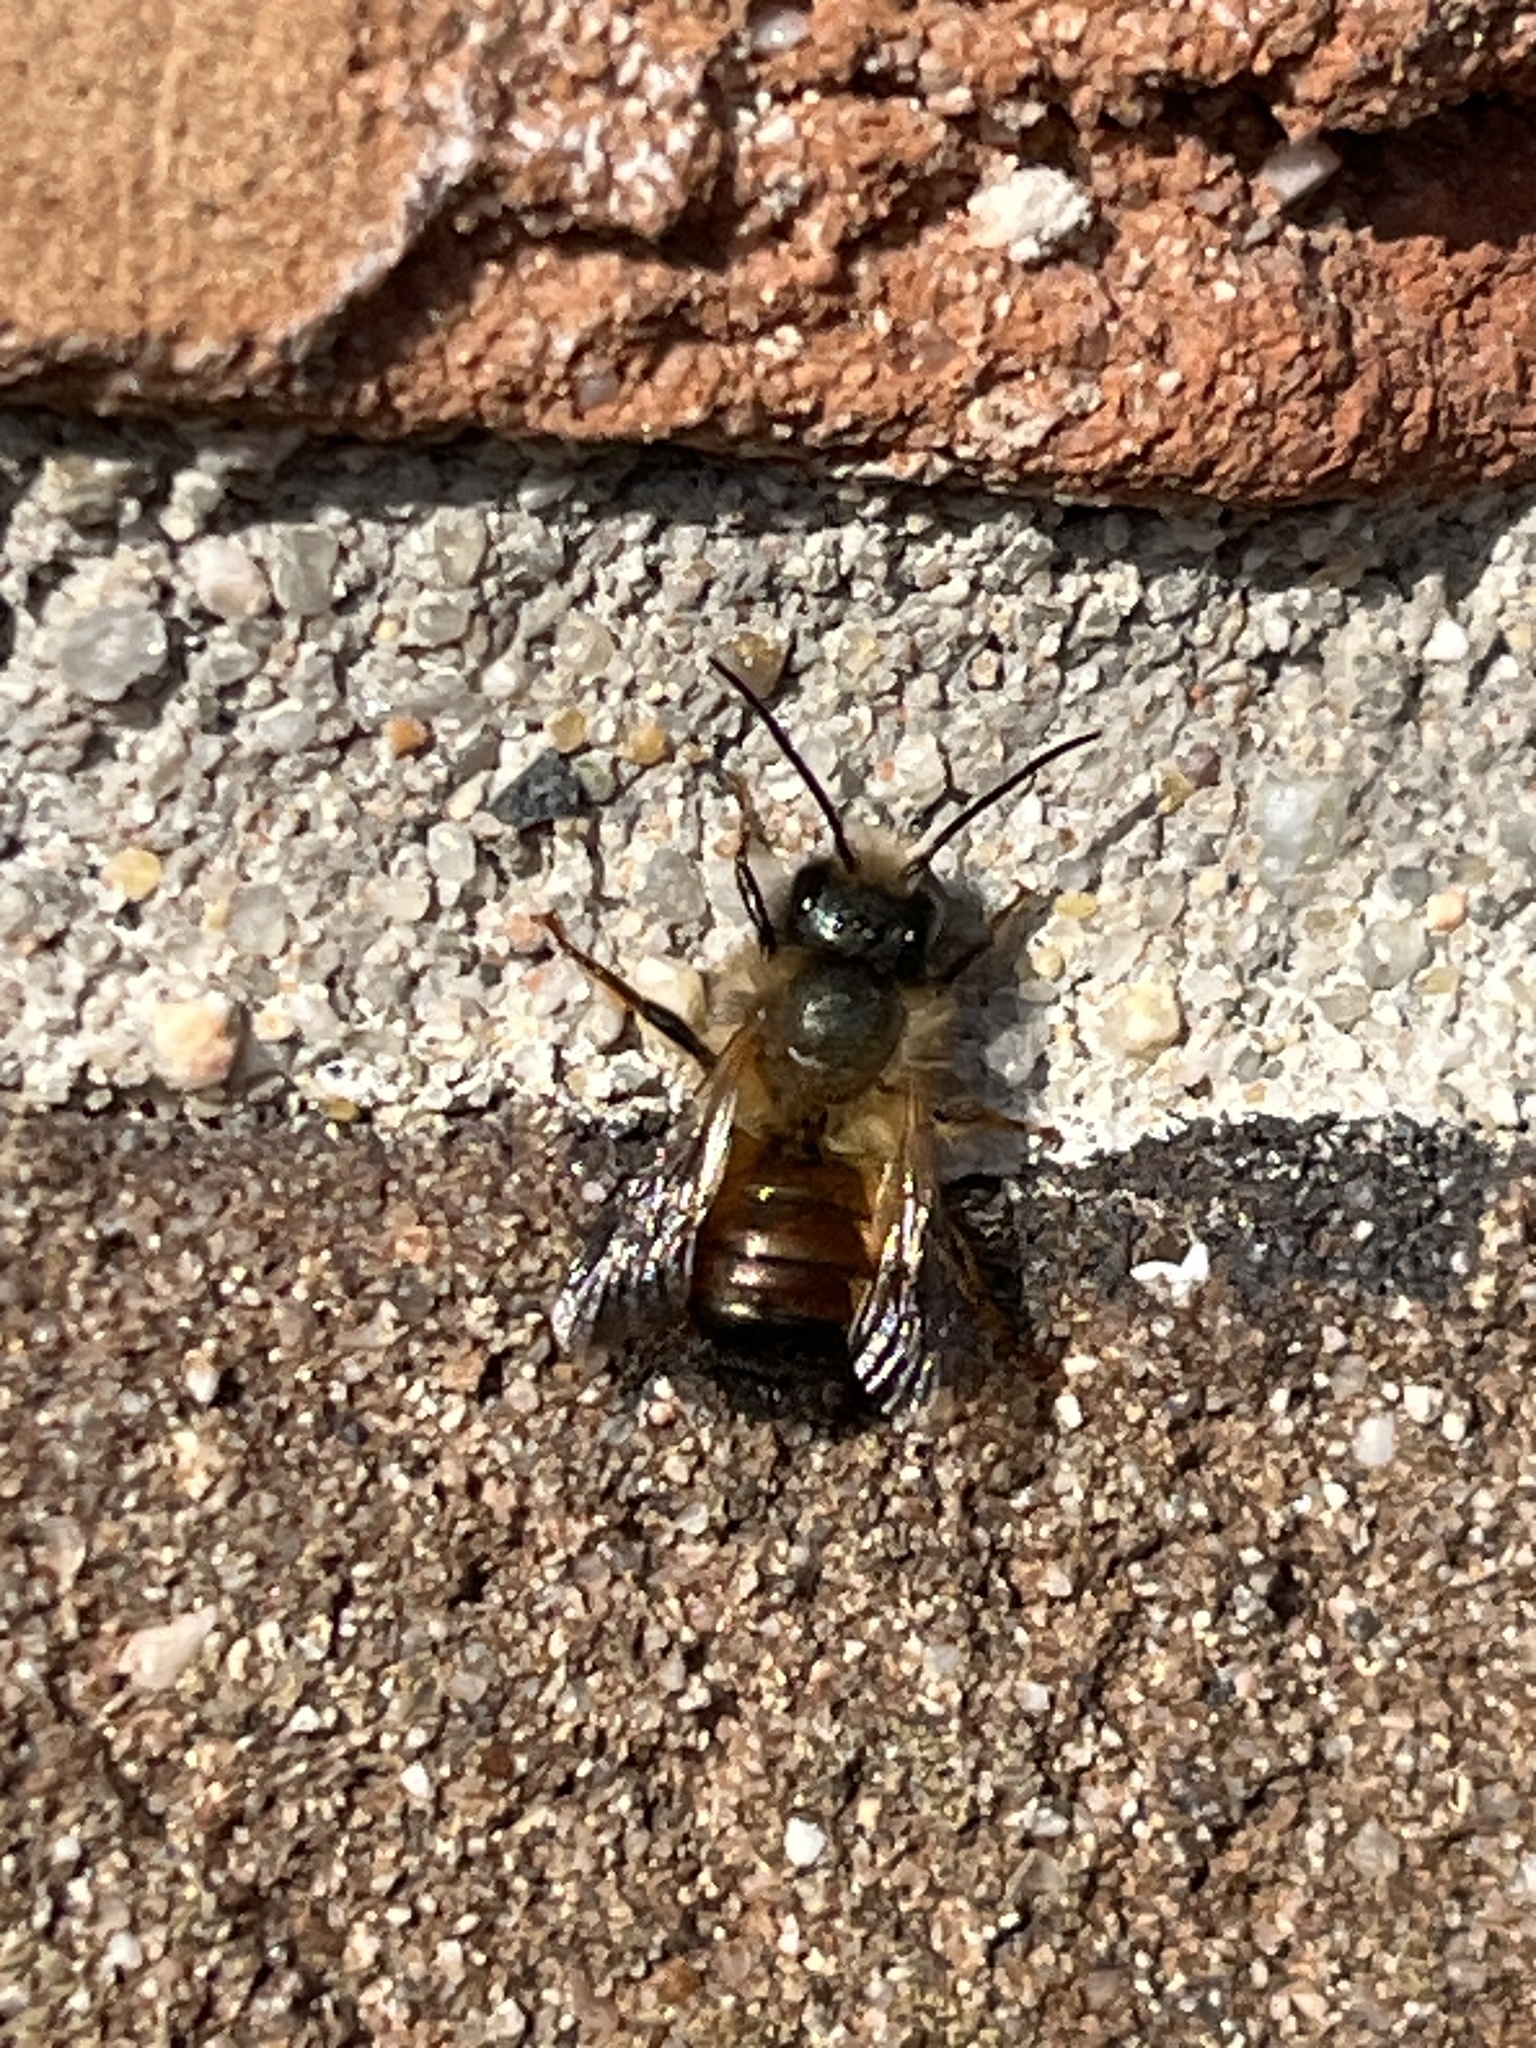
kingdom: Animalia
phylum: Arthropoda
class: Insecta
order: Hymenoptera
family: Megachilidae
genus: Osmia
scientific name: Osmia bicornis
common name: Red mason bee
